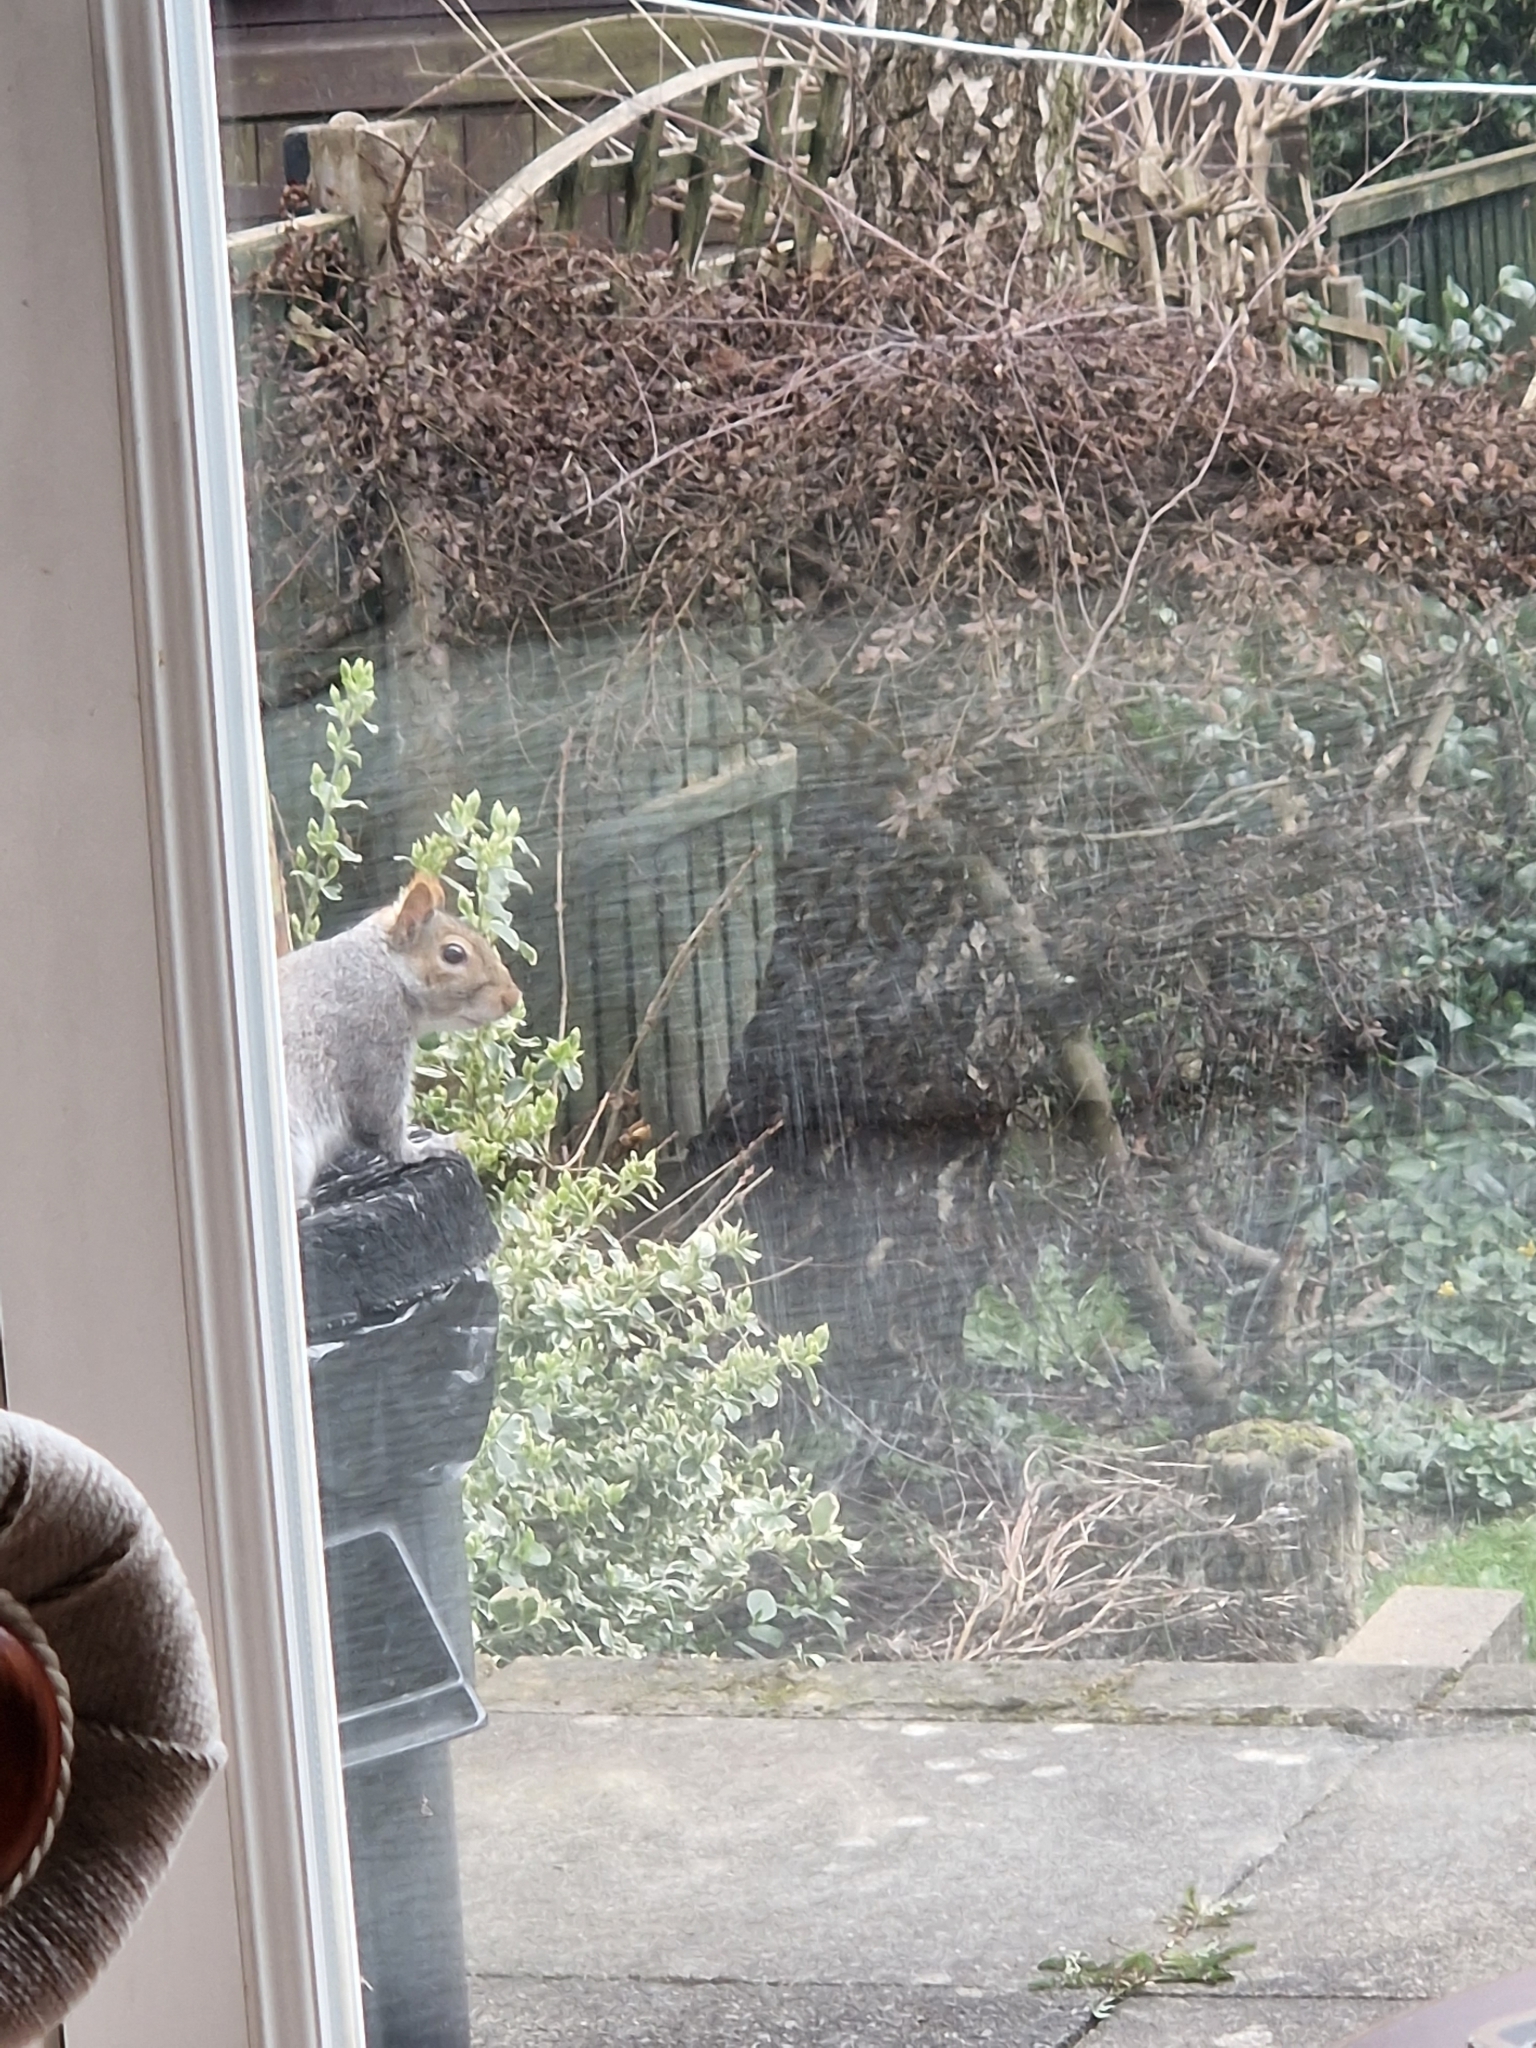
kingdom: Animalia
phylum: Chordata
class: Mammalia
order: Rodentia
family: Sciuridae
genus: Sciurus
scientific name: Sciurus carolinensis
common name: Eastern gray squirrel
